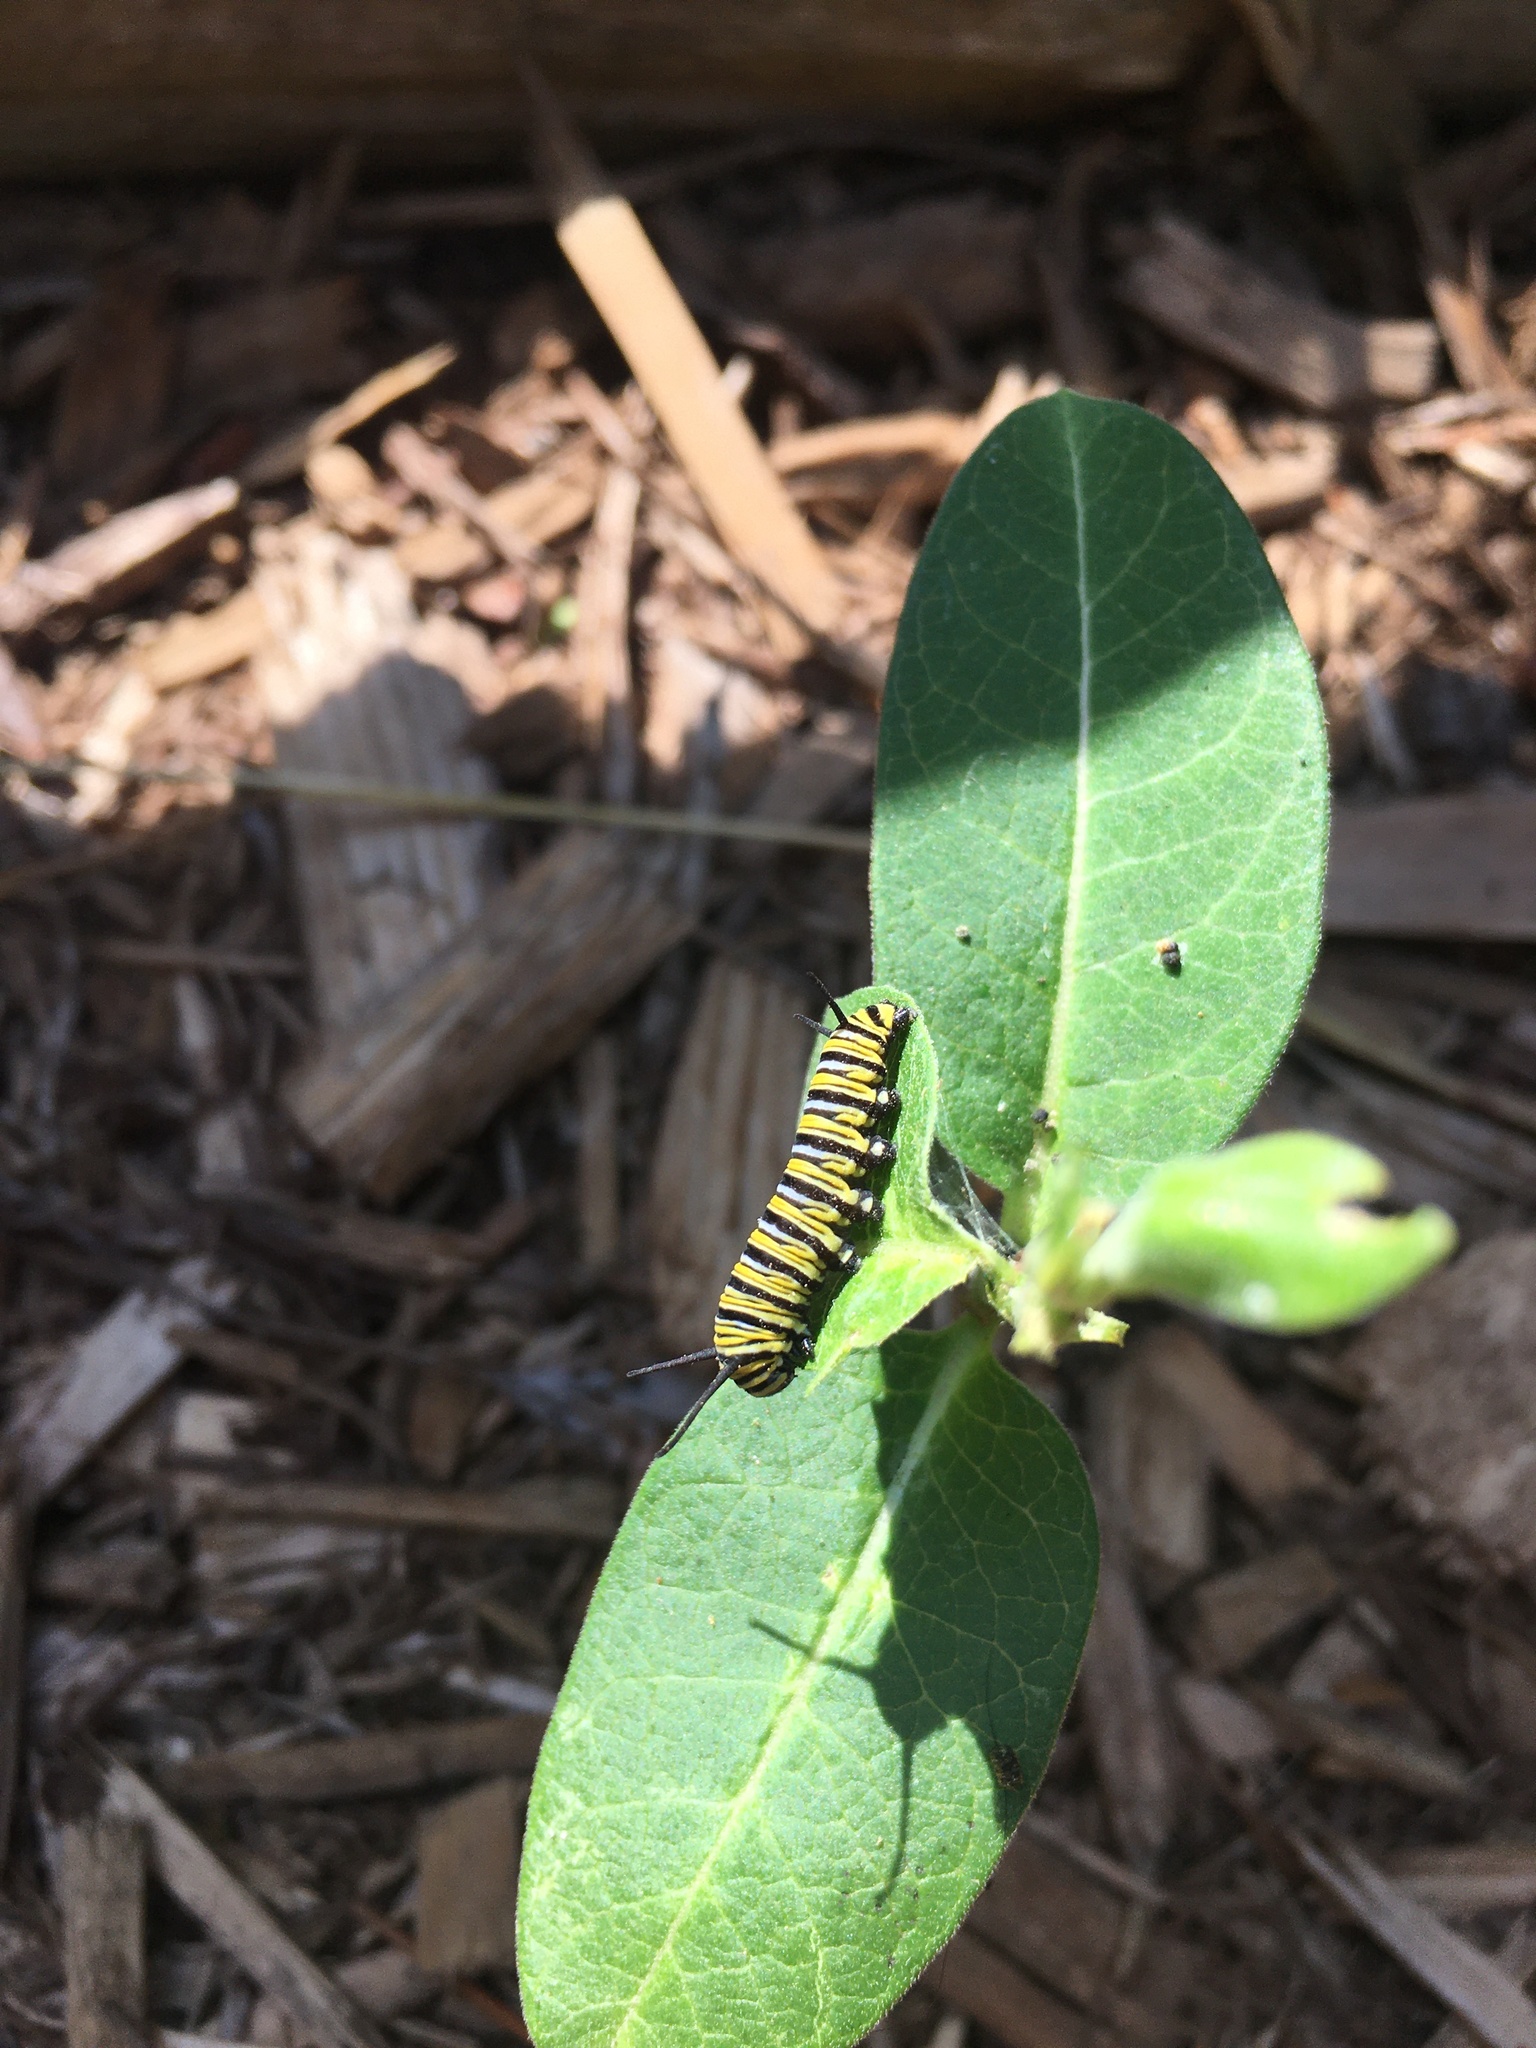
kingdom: Animalia
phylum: Arthropoda
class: Insecta
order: Lepidoptera
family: Nymphalidae
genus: Danaus
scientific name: Danaus plexippus
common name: Monarch
